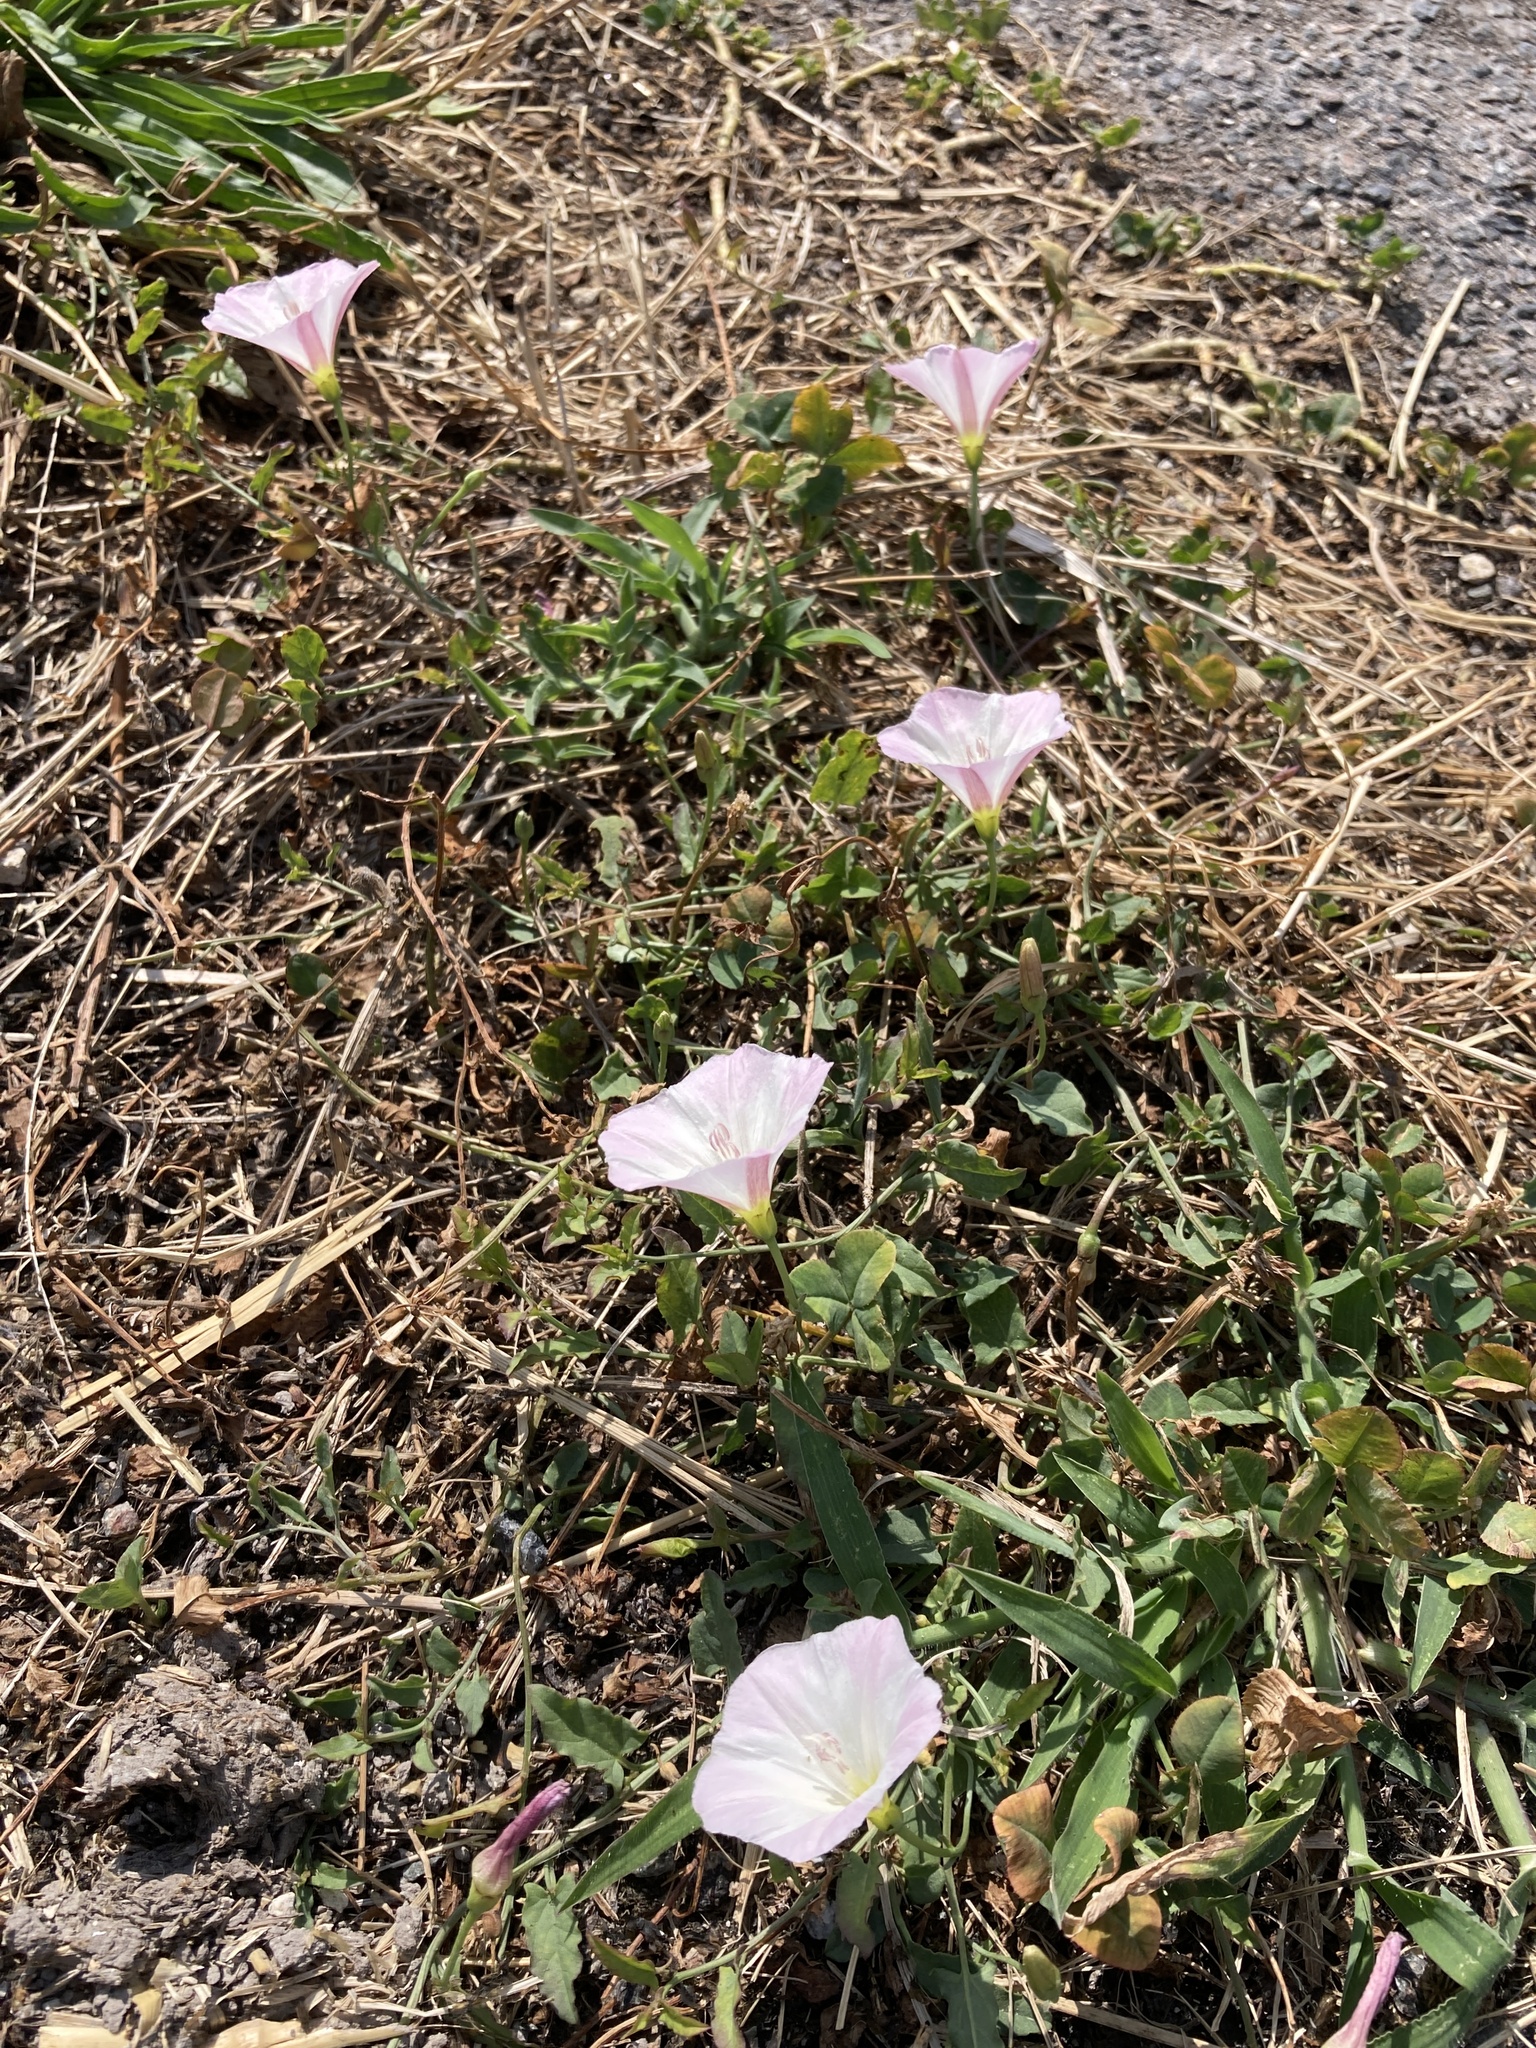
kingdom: Plantae
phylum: Tracheophyta
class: Magnoliopsida
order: Solanales
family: Convolvulaceae
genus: Convolvulus
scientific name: Convolvulus arvensis
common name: Field bindweed
